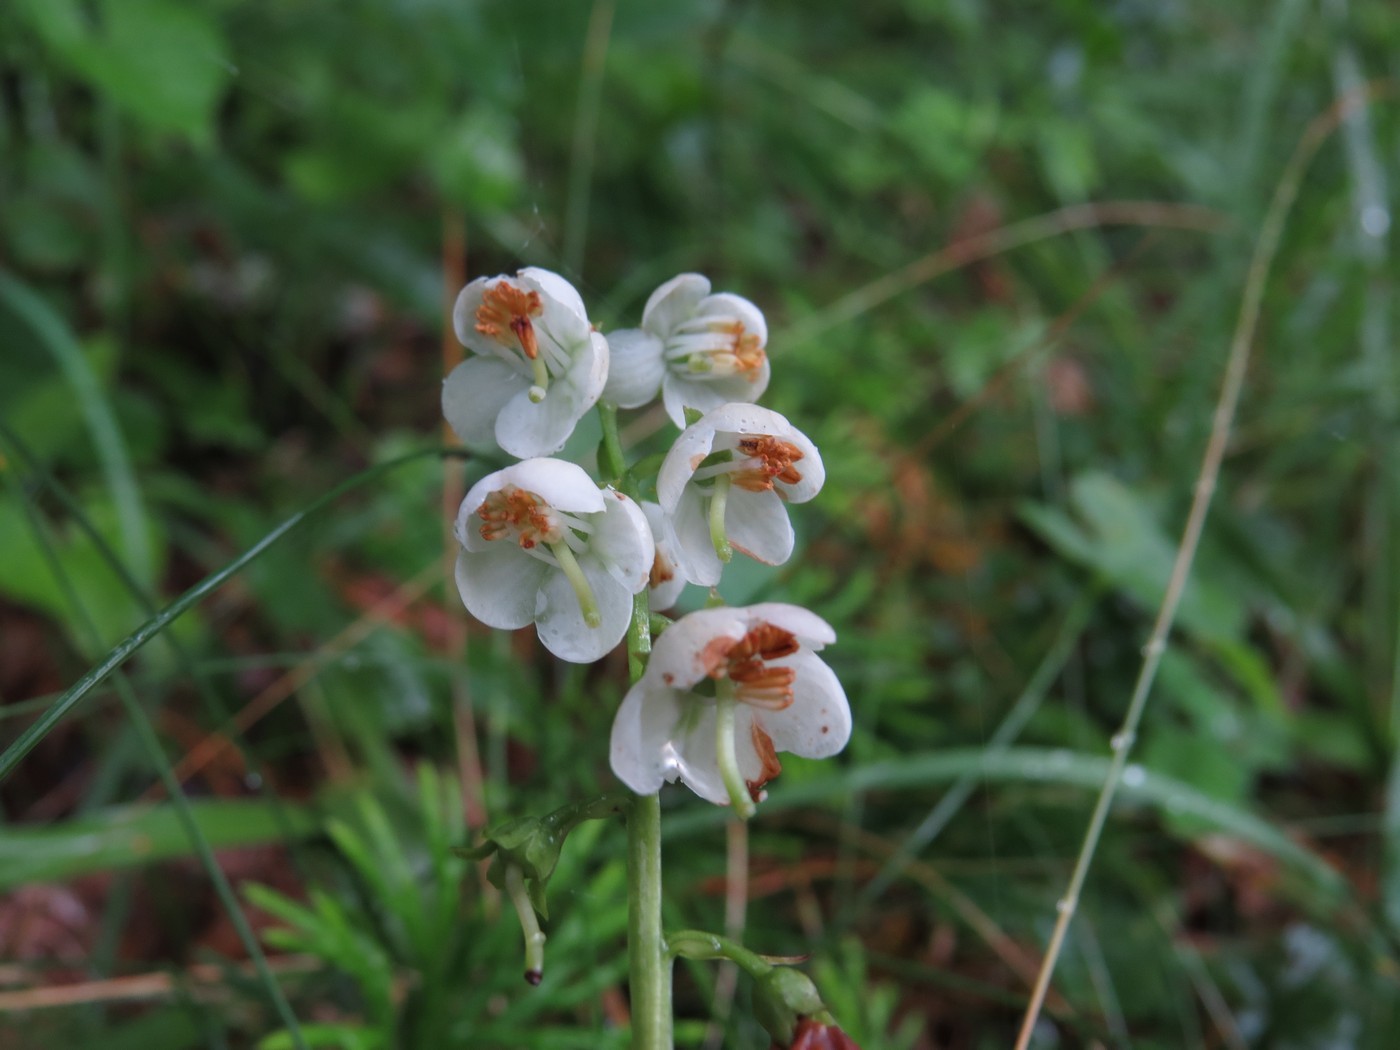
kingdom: Plantae
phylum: Tracheophyta
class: Magnoliopsida
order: Ericales
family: Ericaceae
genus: Pyrola
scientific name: Pyrola americana
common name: American wintergreen
